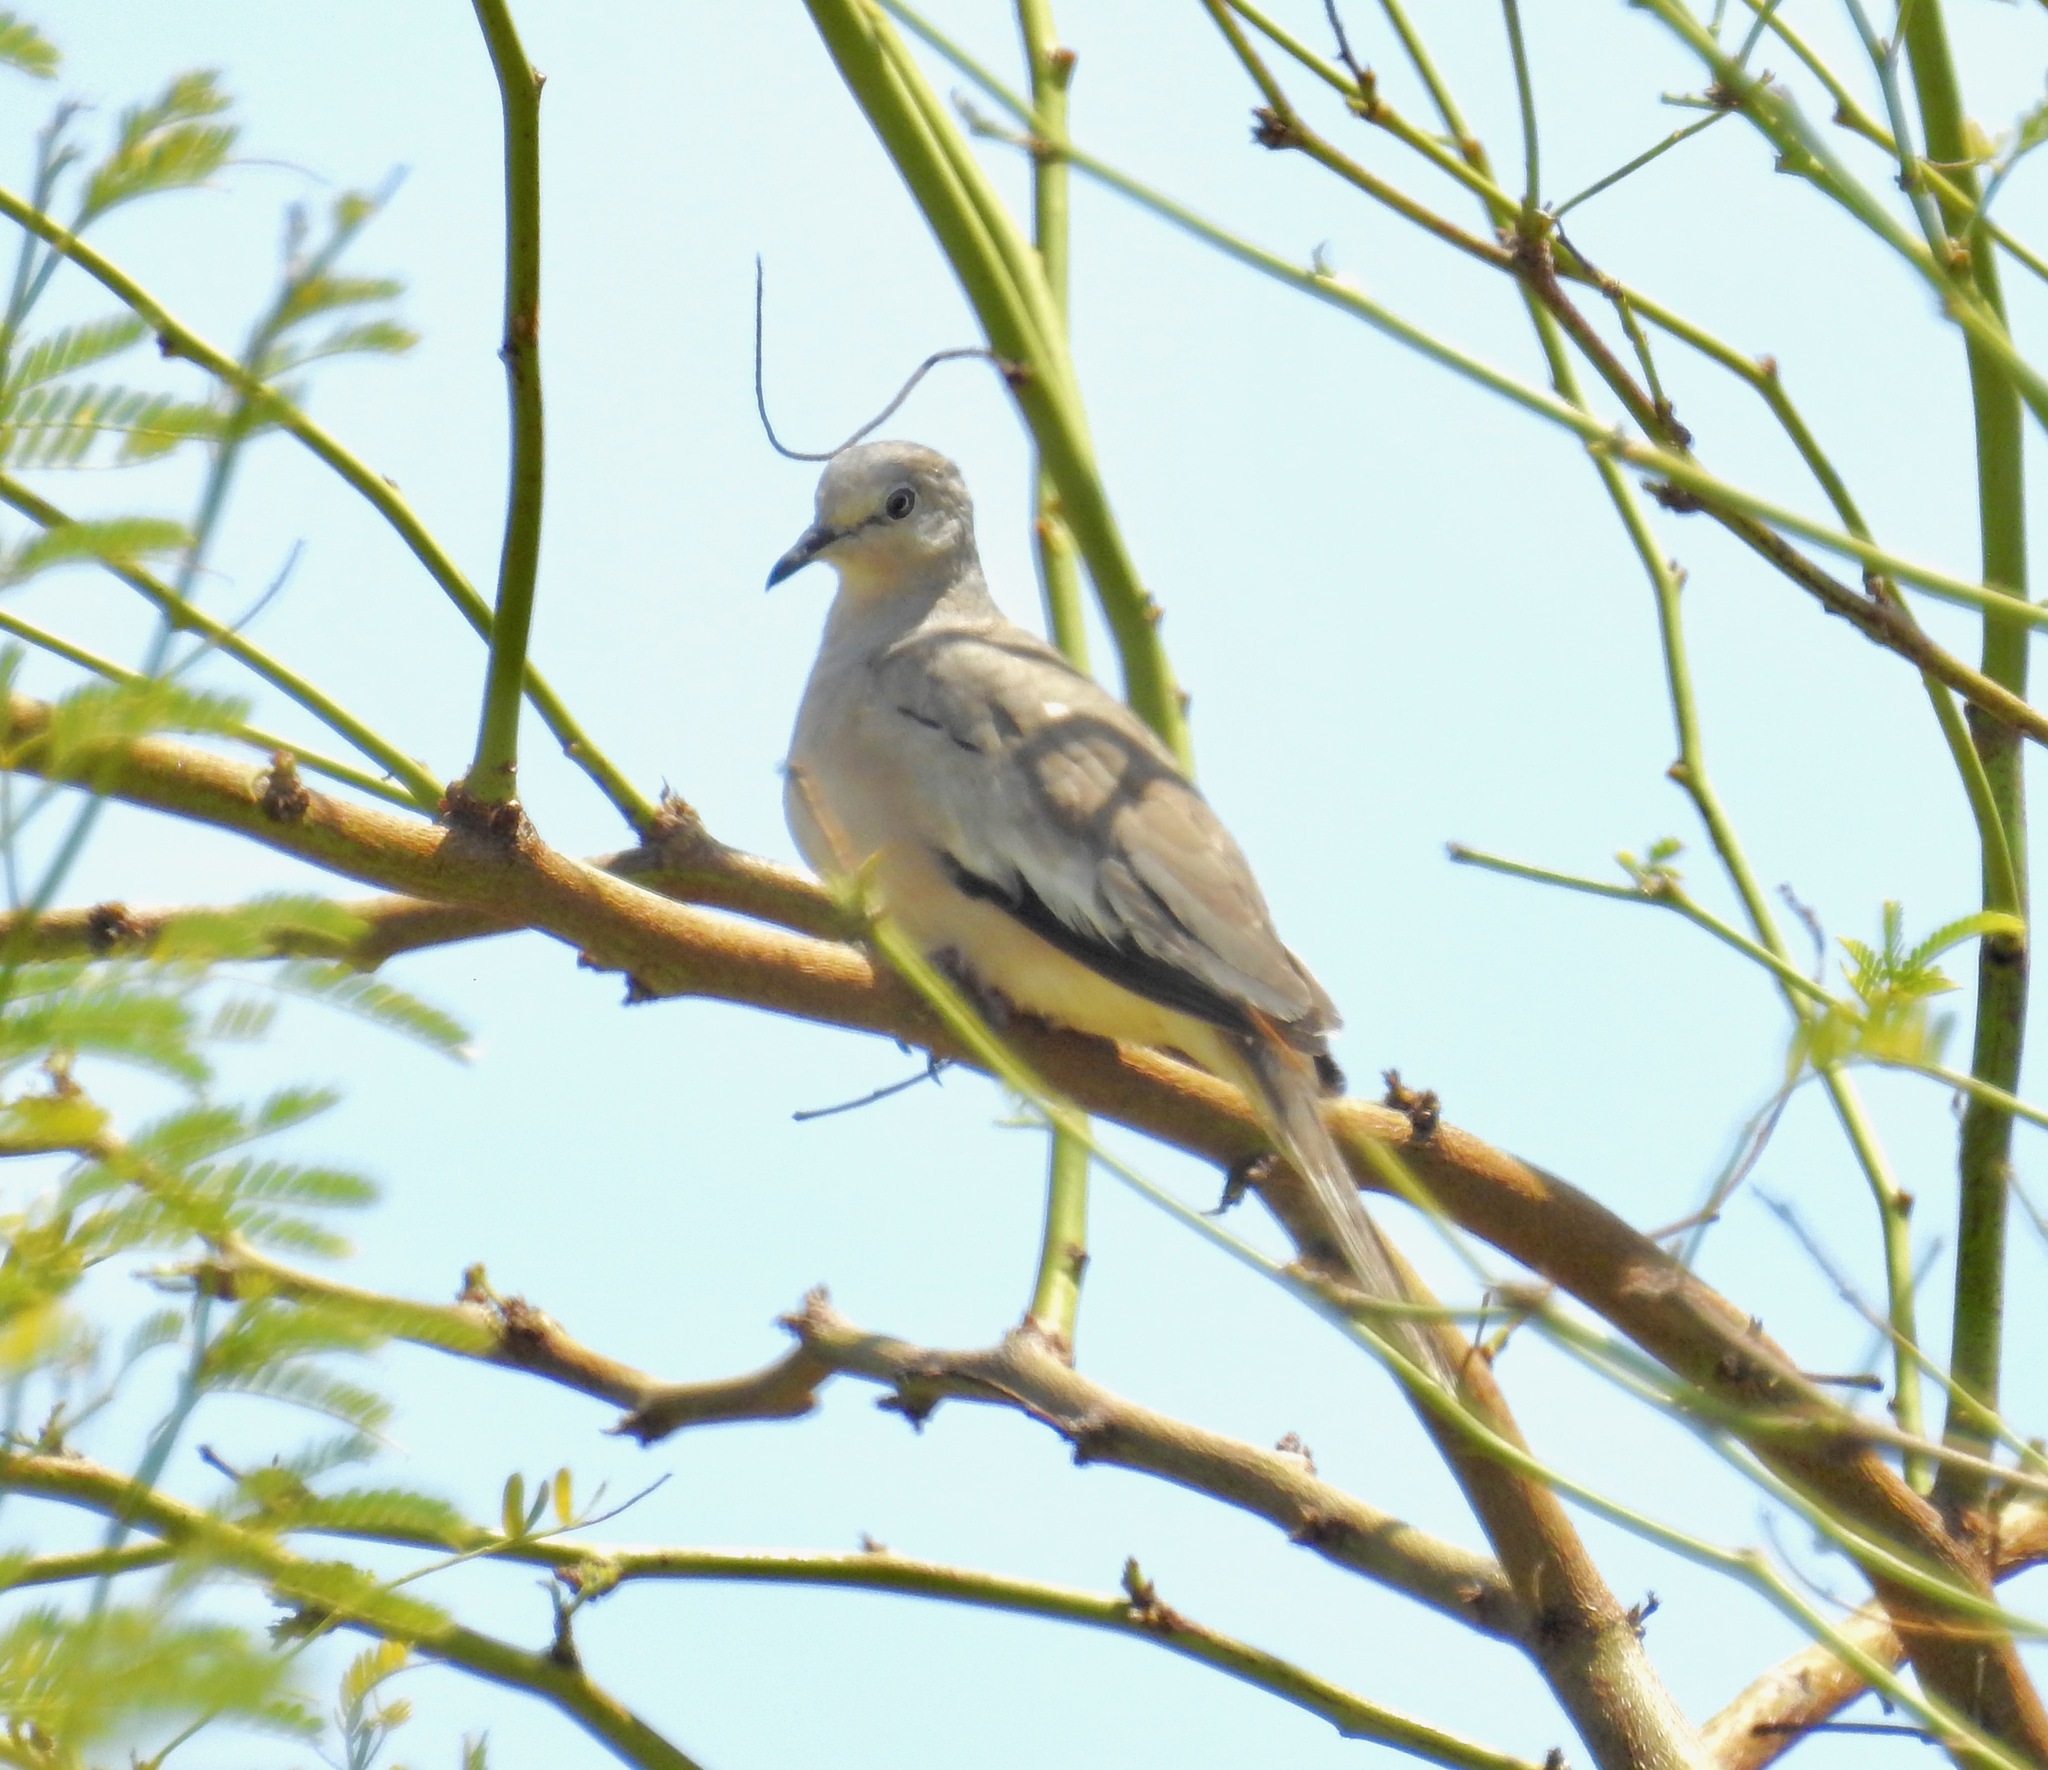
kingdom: Animalia
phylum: Chordata
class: Aves
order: Columbiformes
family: Columbidae
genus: Columbina
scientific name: Columbina picui
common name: Picui ground dove
